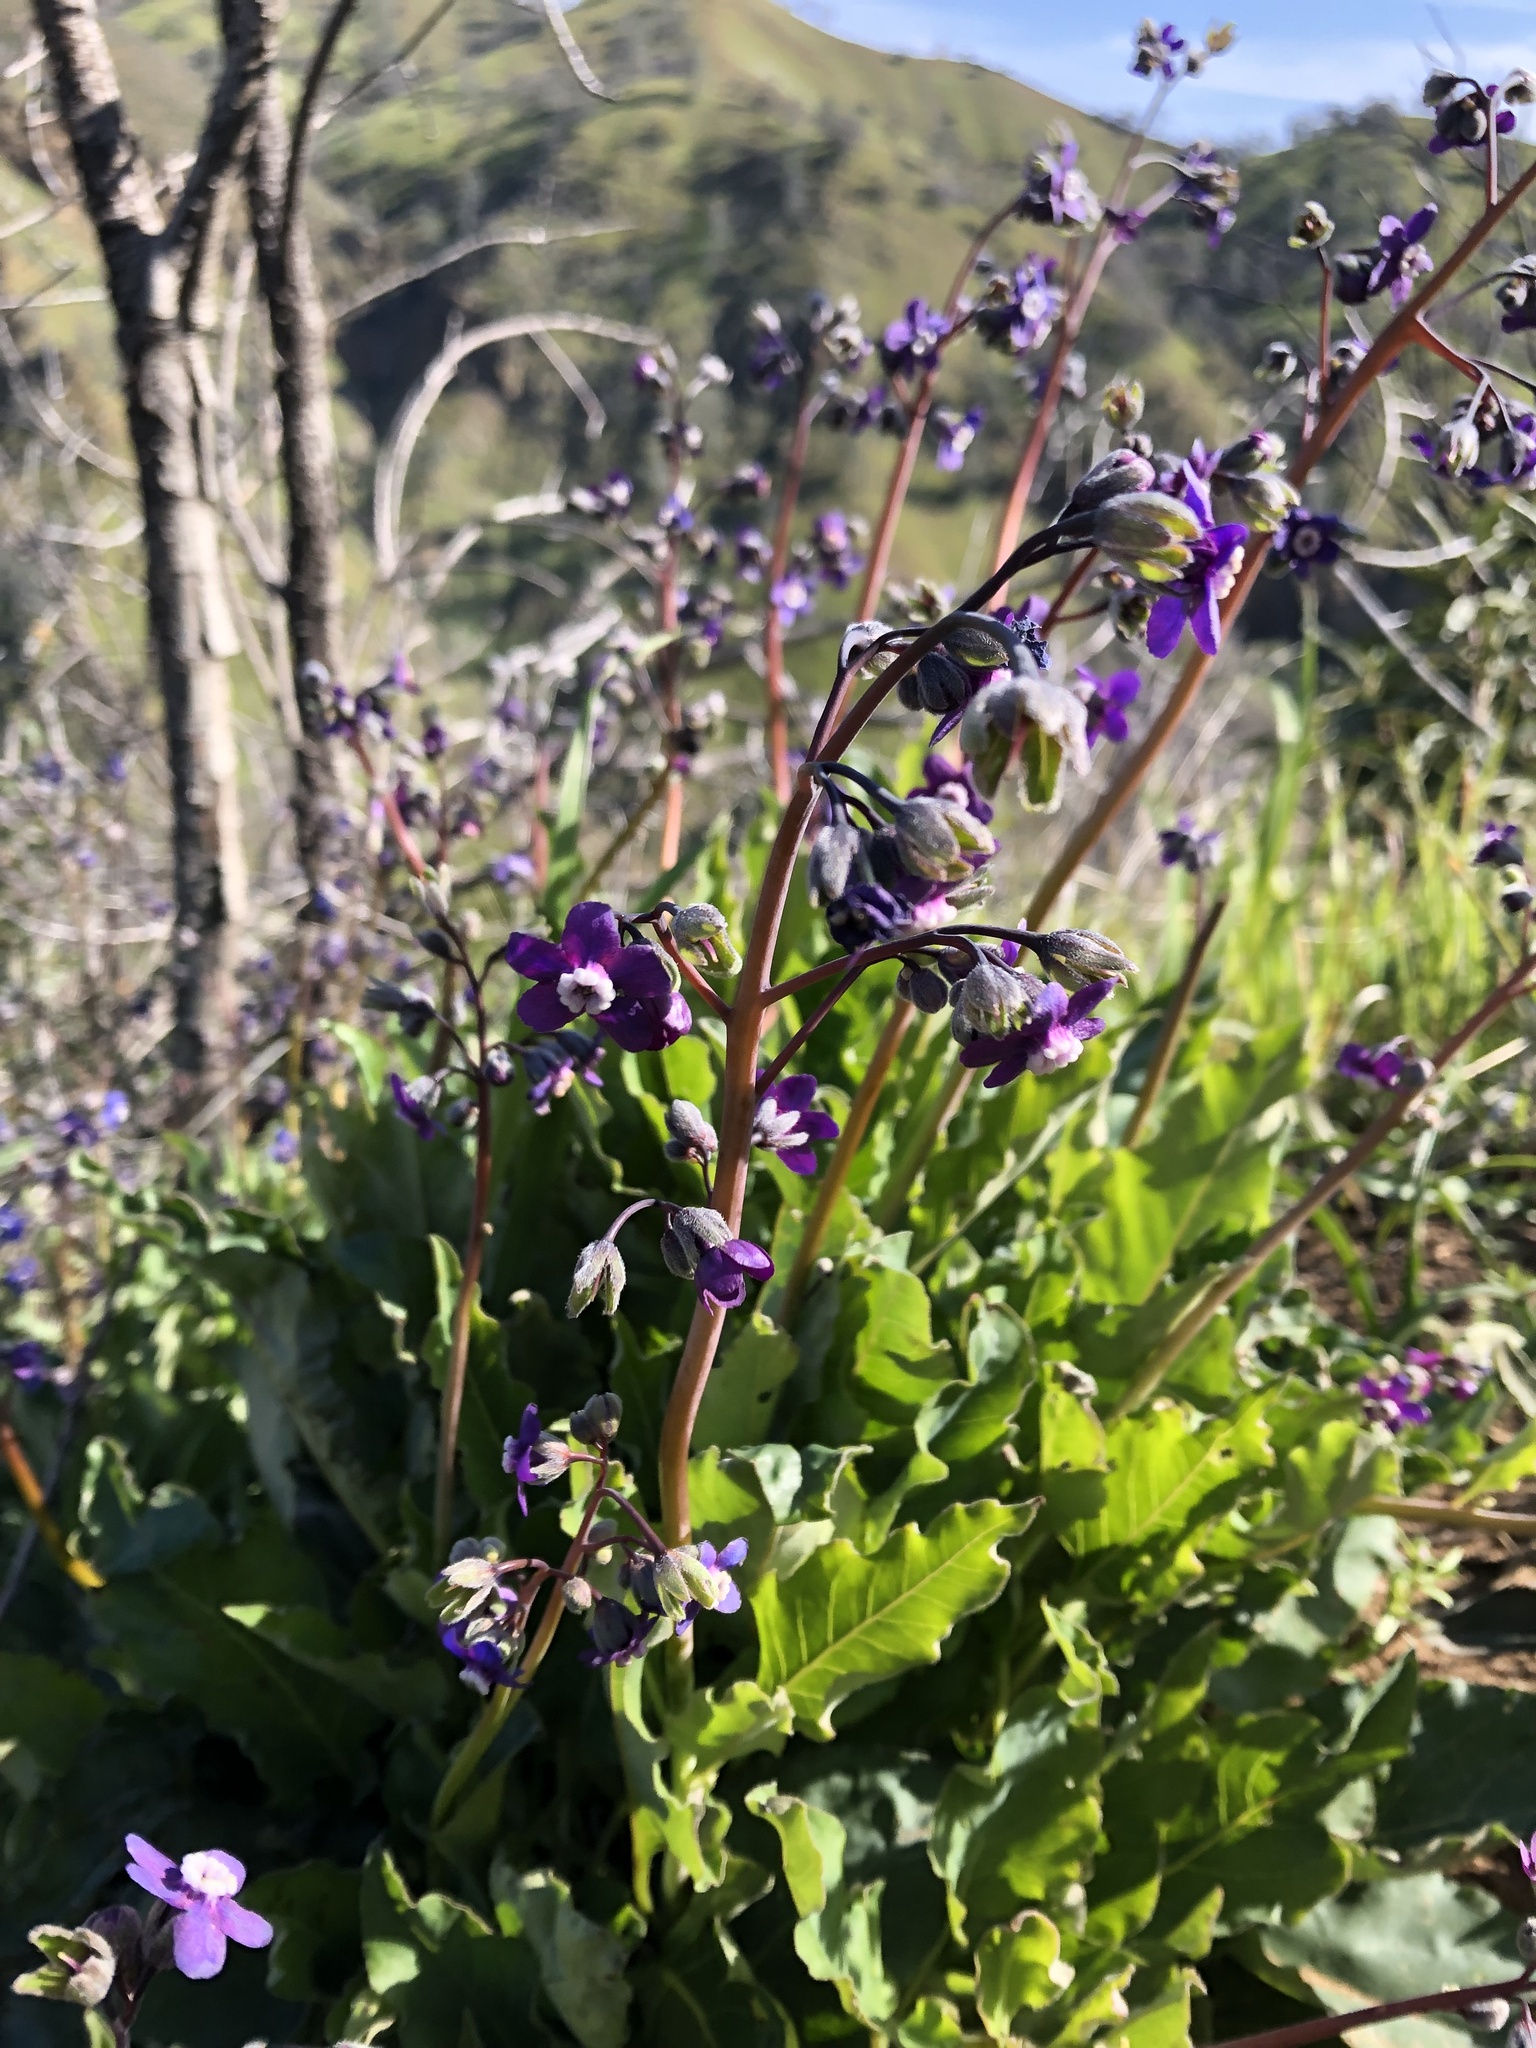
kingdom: Plantae
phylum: Tracheophyta
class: Magnoliopsida
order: Boraginales
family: Boraginaceae
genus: Adelinia
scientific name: Adelinia grande
